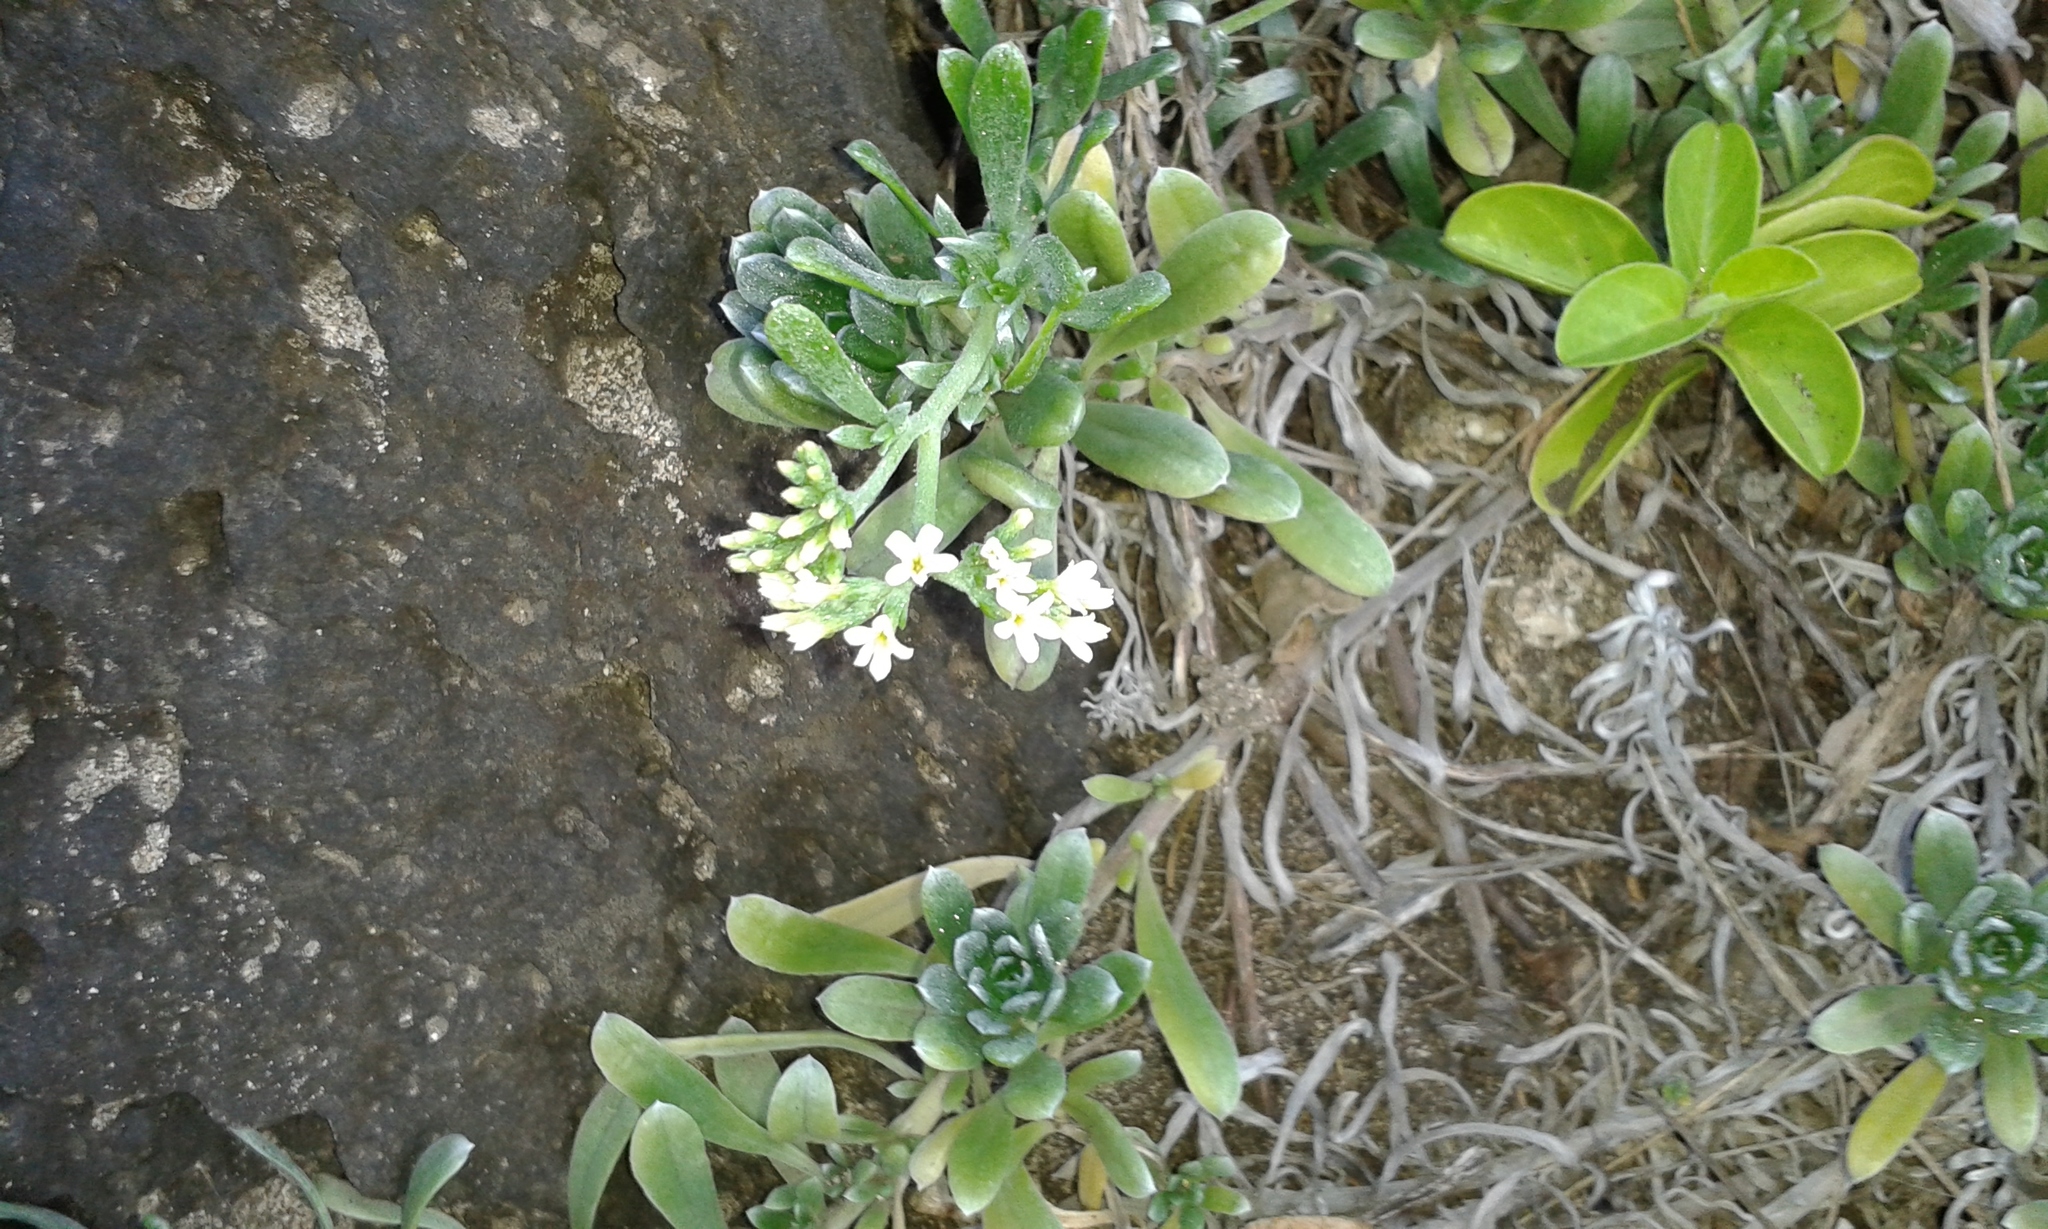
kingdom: Plantae
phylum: Tracheophyta
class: Magnoliopsida
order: Boraginales
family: Heliotropiaceae
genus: Heliotropium
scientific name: Heliotropium anomalum
